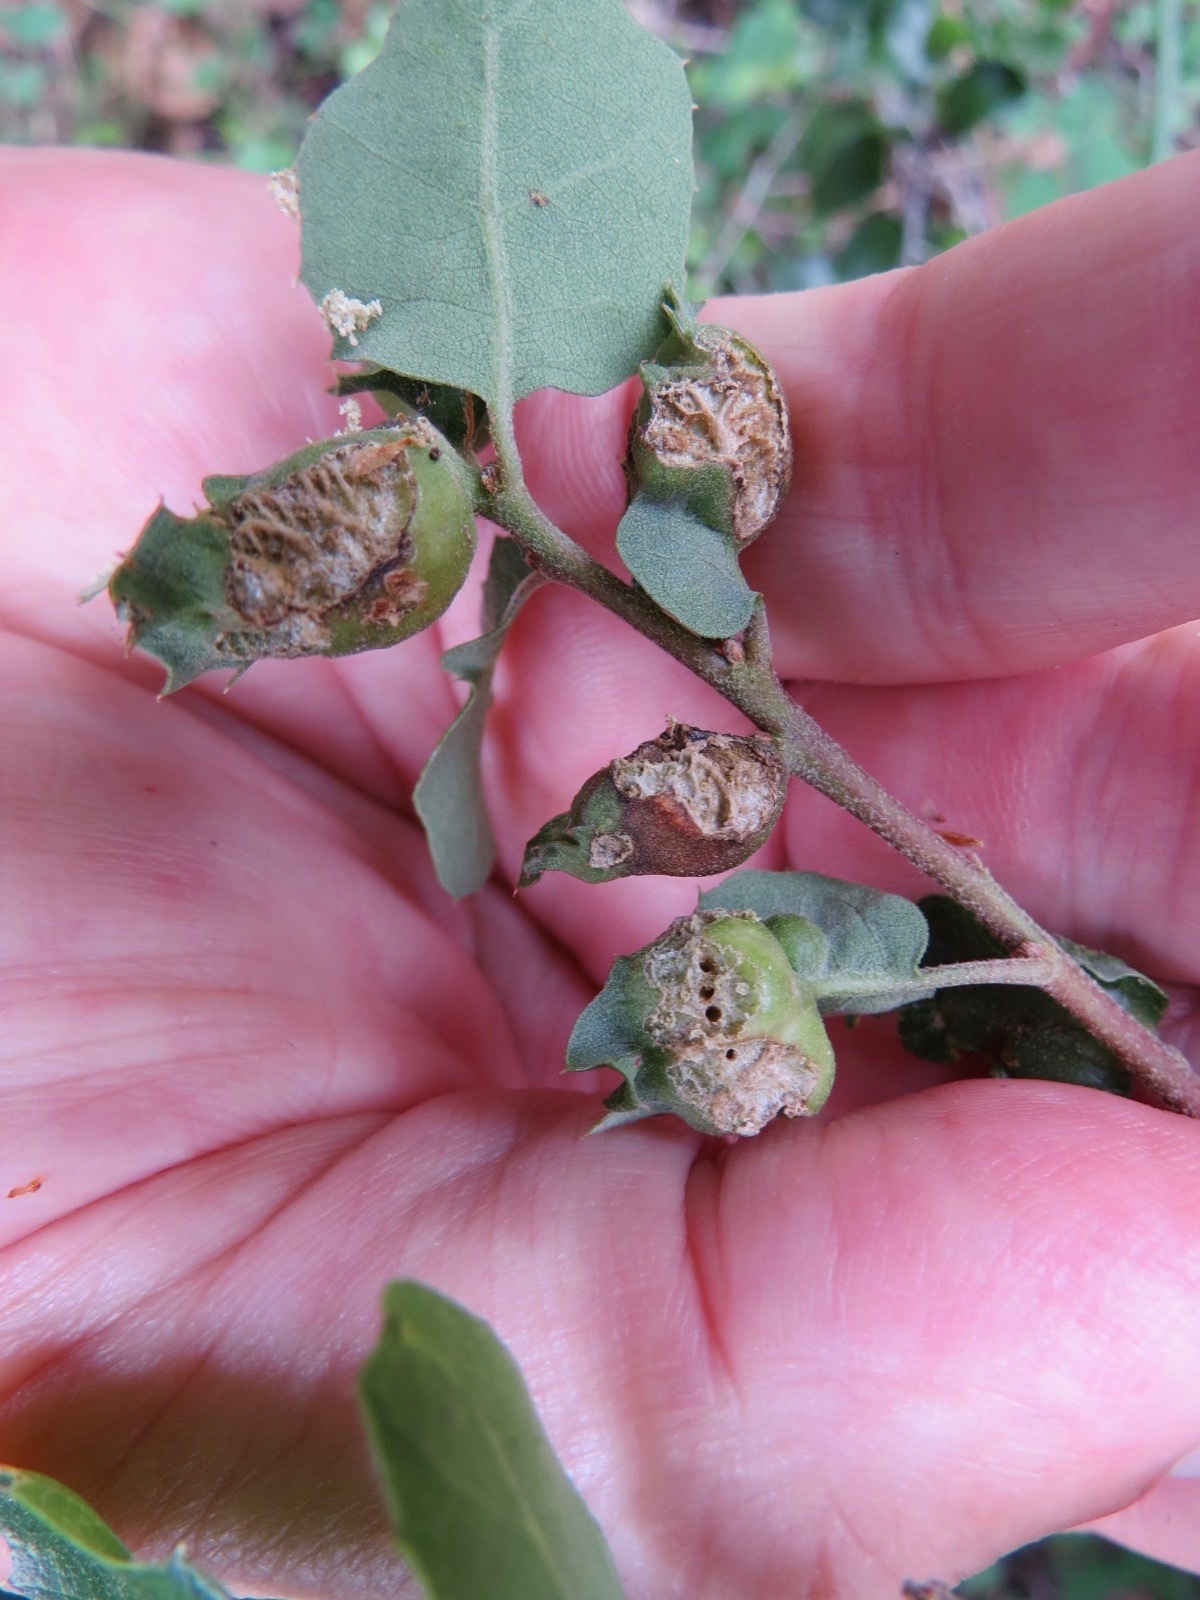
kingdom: Animalia
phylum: Arthropoda
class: Insecta
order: Hymenoptera
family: Cynipidae
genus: Neuroterus
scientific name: Neuroterus
